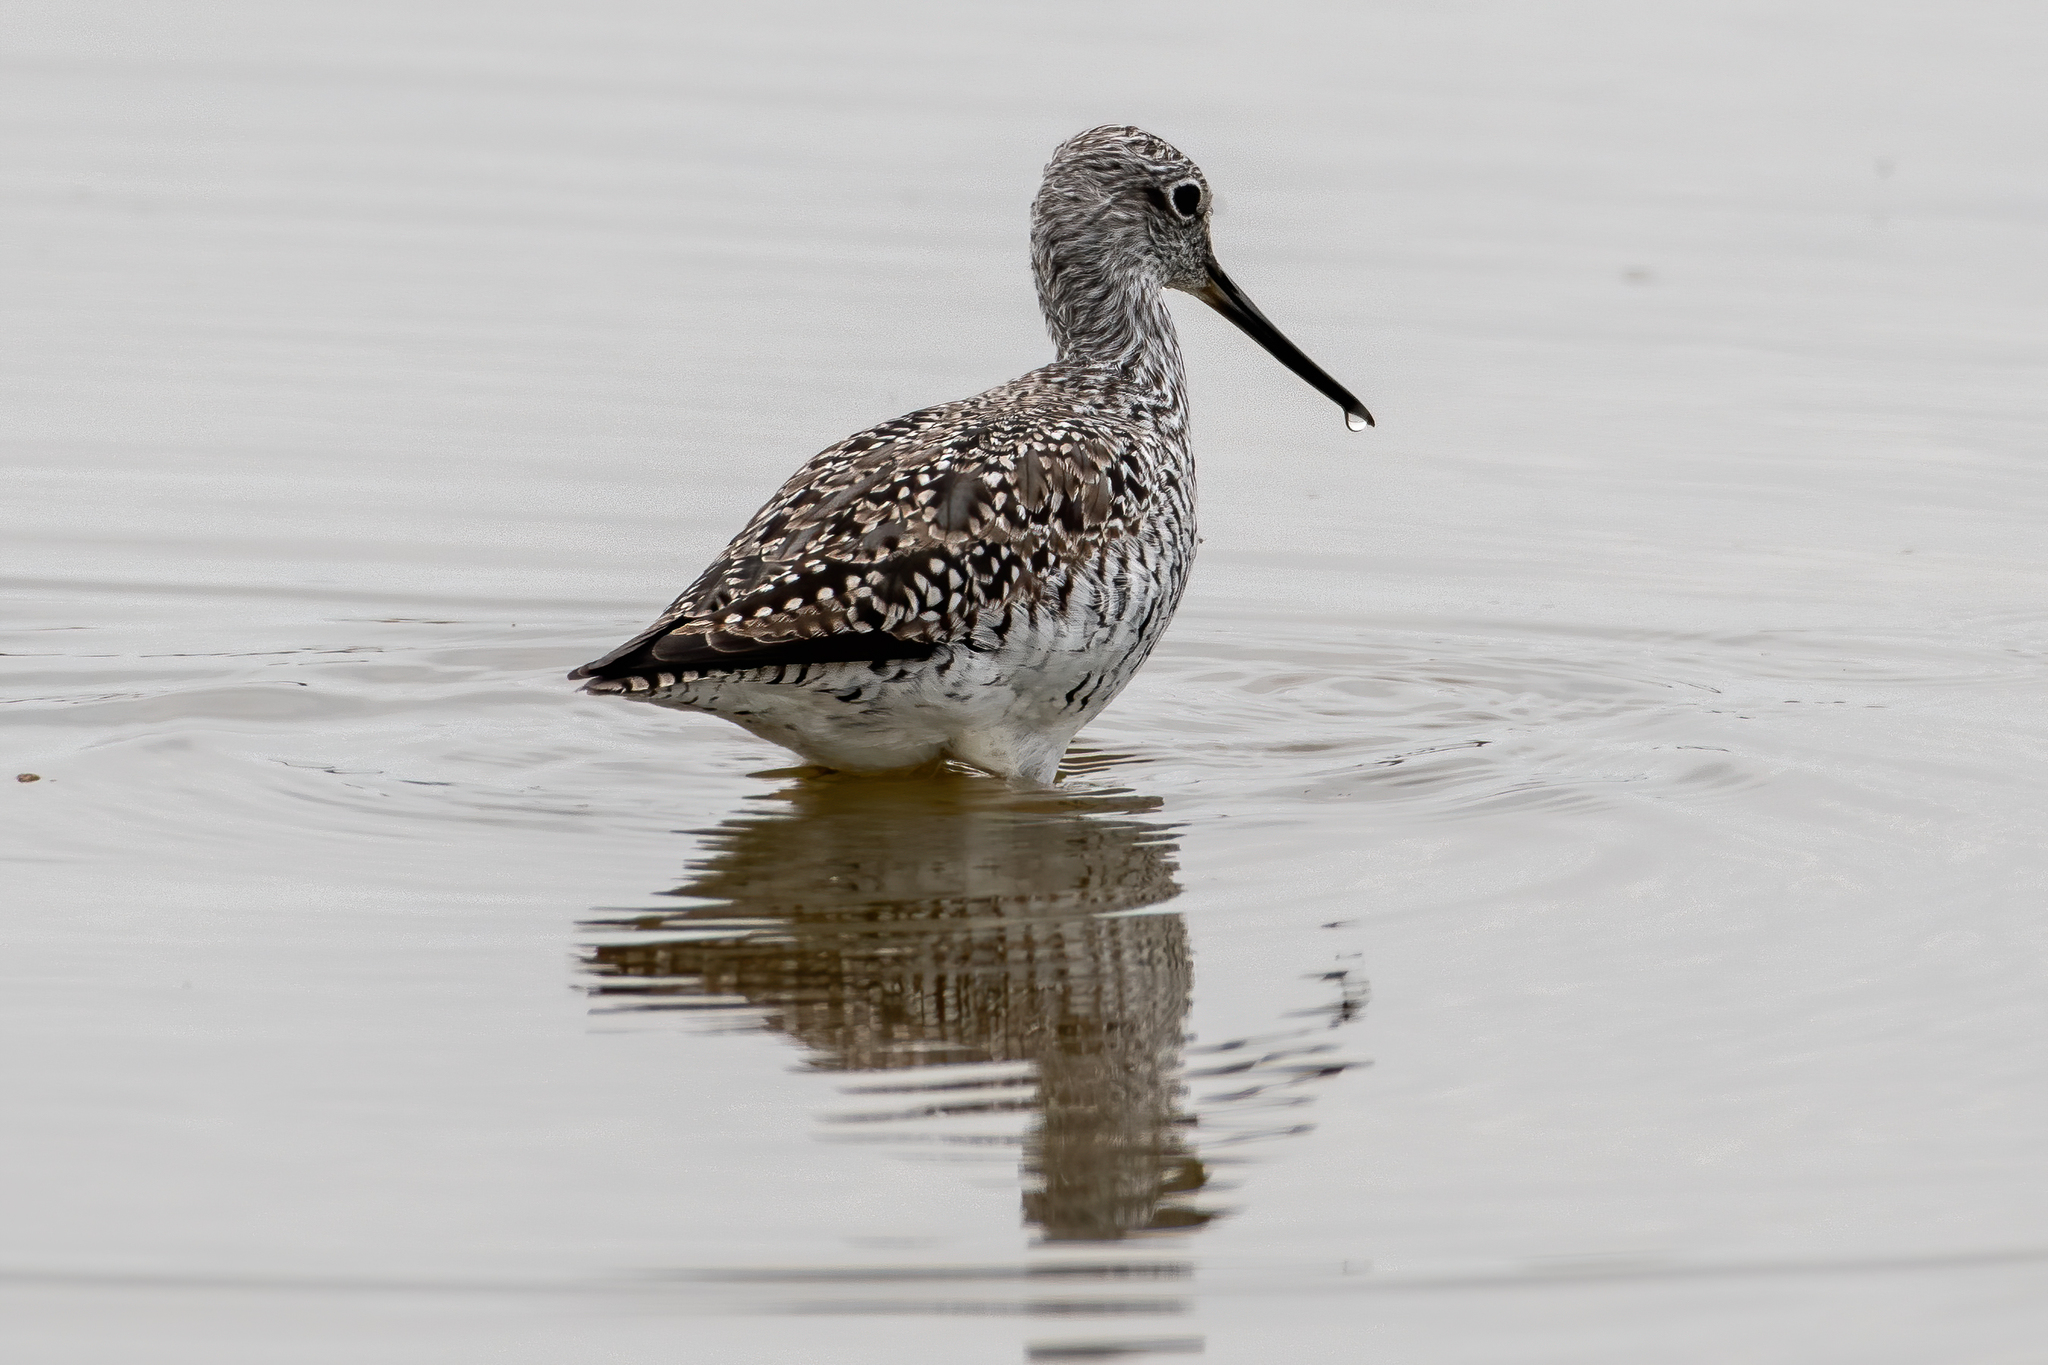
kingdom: Animalia
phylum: Chordata
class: Aves
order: Charadriiformes
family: Scolopacidae
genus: Tringa
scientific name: Tringa melanoleuca
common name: Greater yellowlegs
